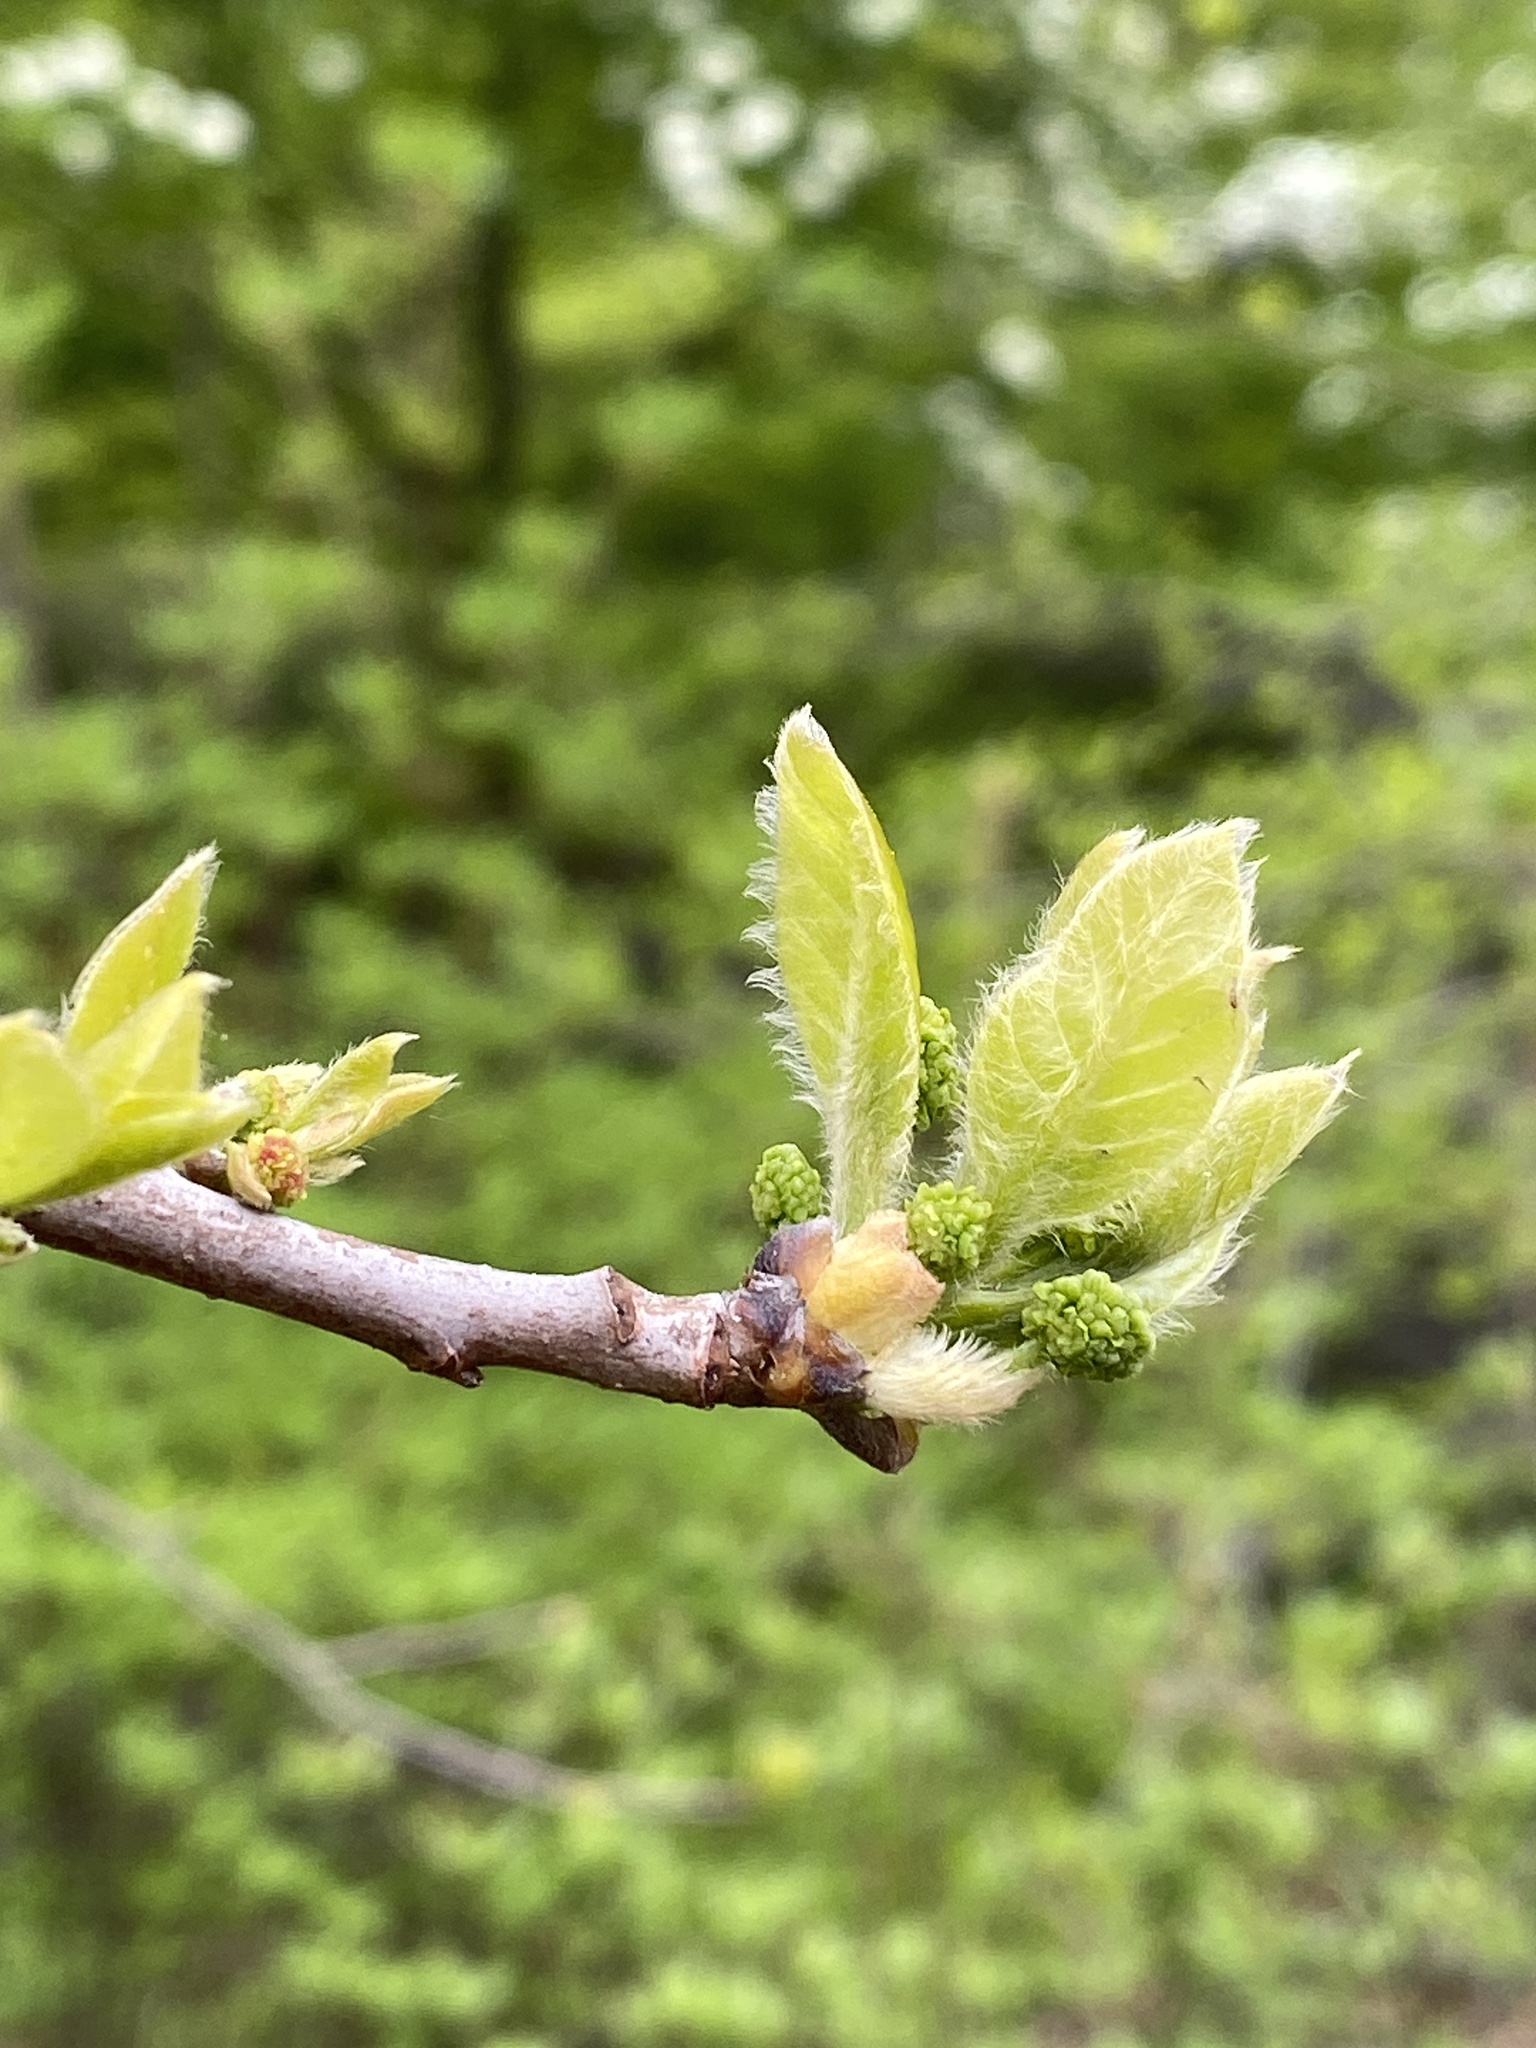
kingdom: Plantae
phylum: Tracheophyta
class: Magnoliopsida
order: Cornales
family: Nyssaceae
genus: Nyssa
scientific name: Nyssa sylvatica
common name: Black tupelo
